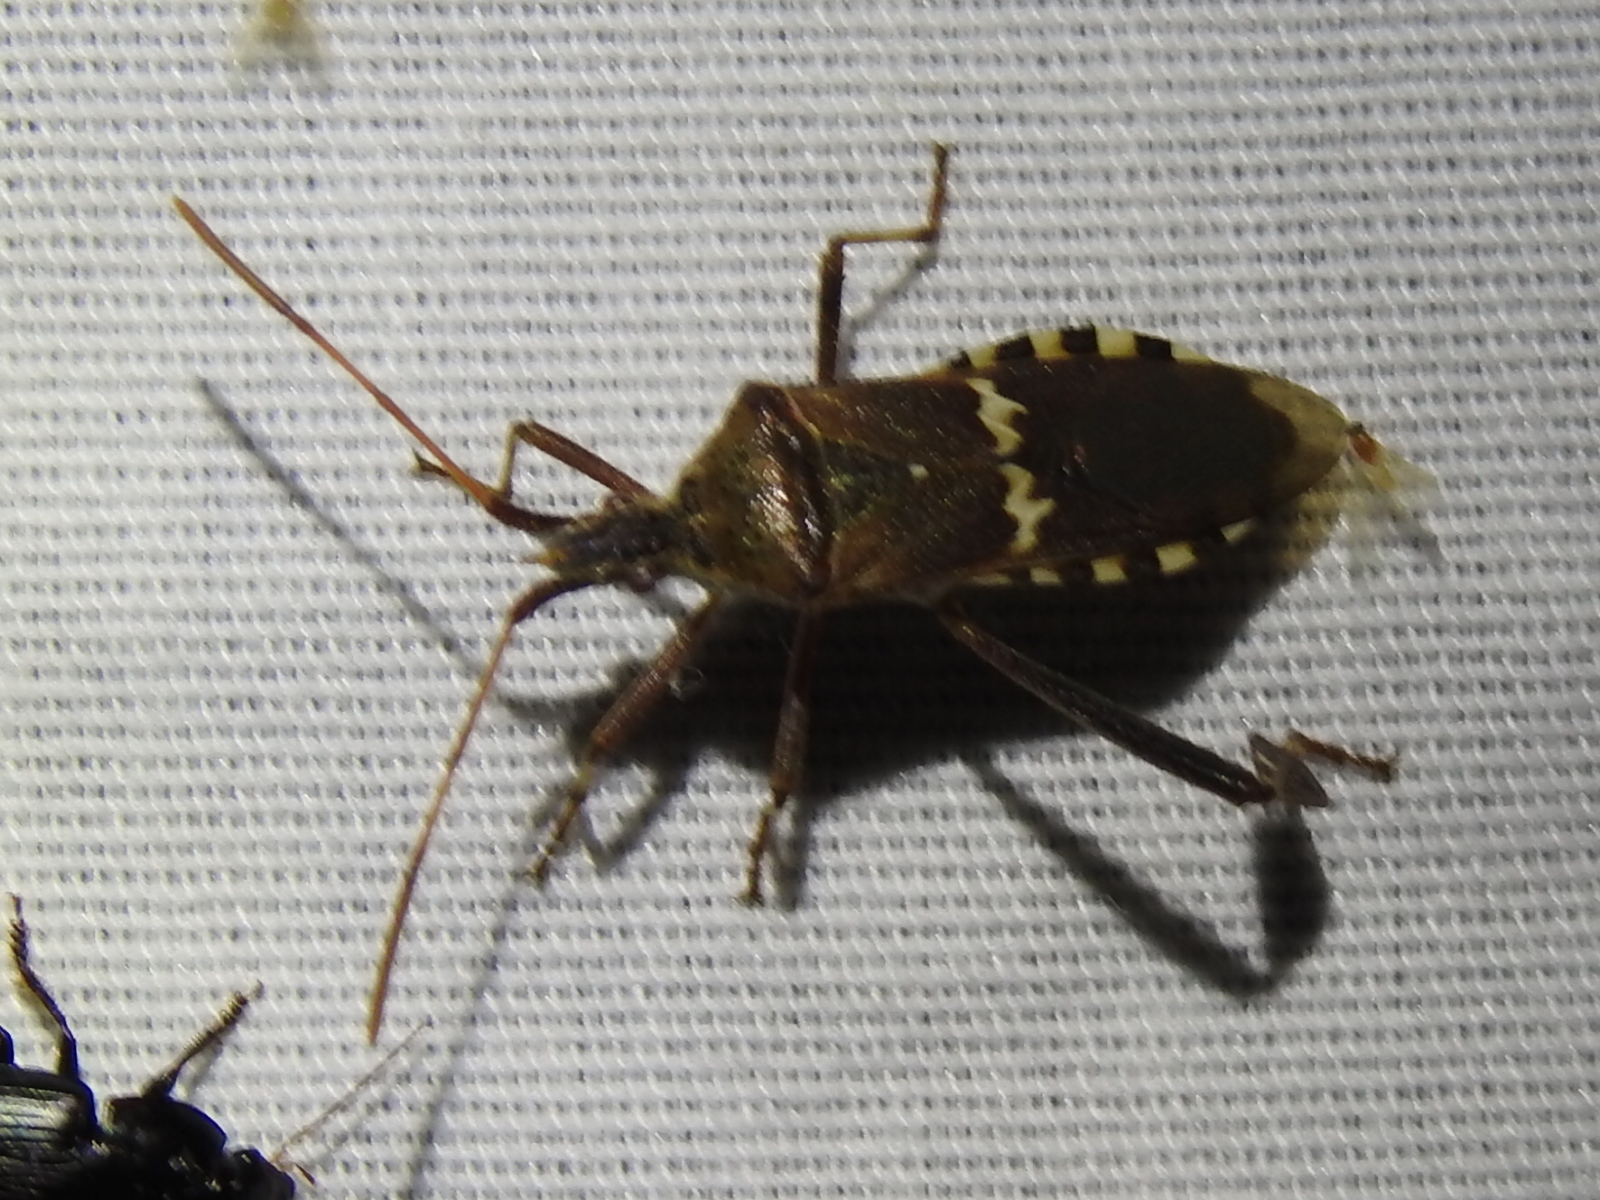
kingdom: Animalia
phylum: Arthropoda
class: Insecta
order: Hemiptera
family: Coreidae
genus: Leptoglossus
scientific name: Leptoglossus clypealis
